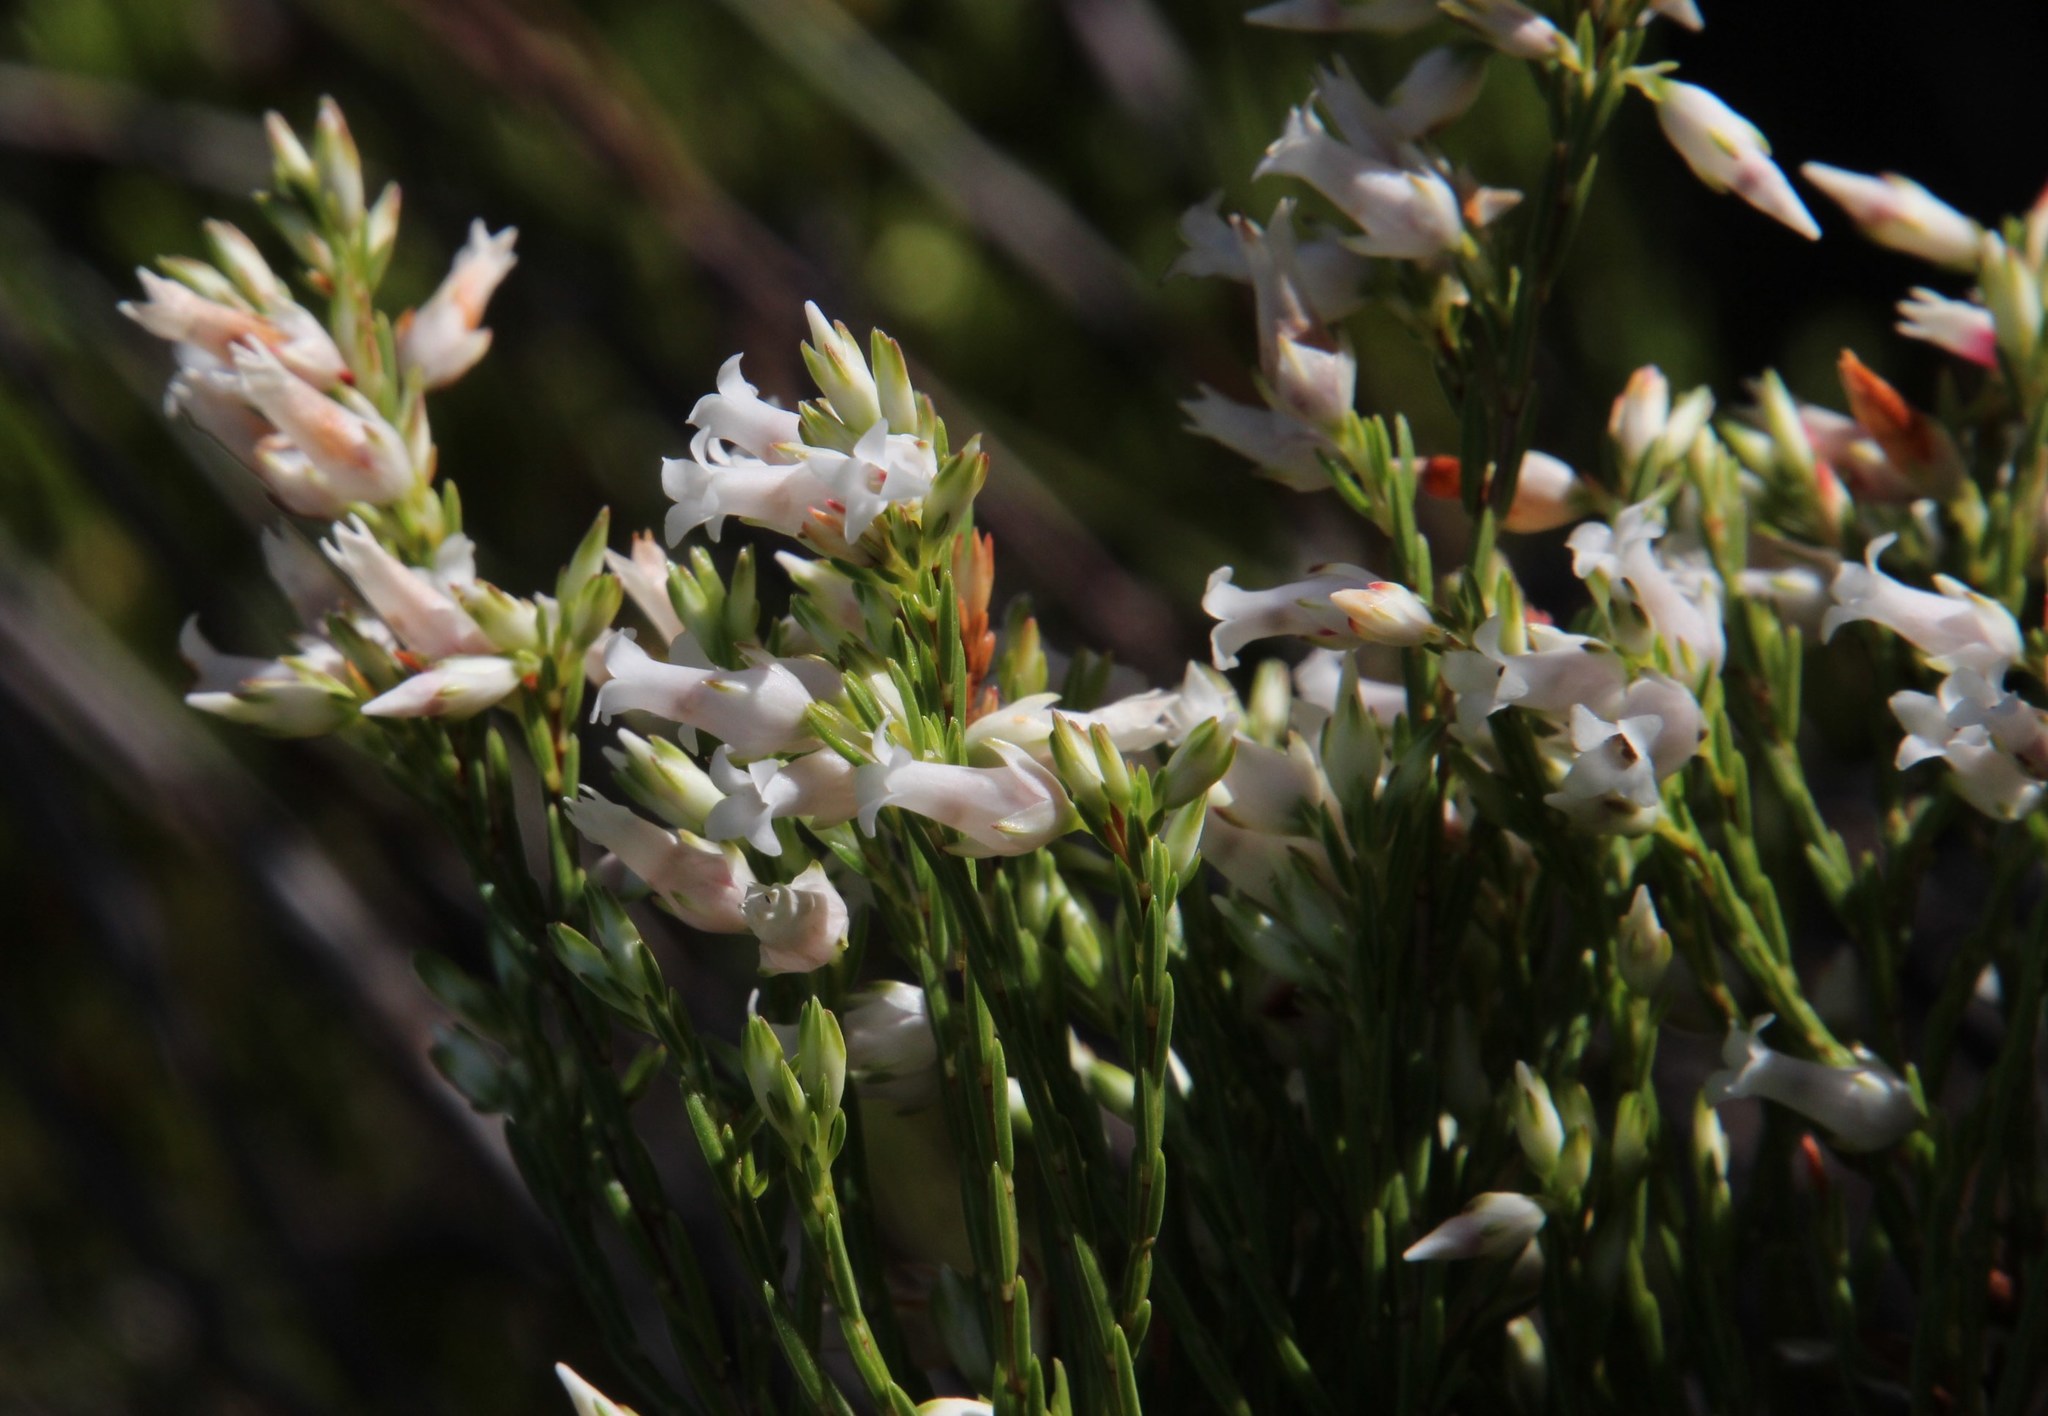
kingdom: Plantae
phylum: Tracheophyta
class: Magnoliopsida
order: Ericales
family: Ericaceae
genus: Erica
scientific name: Erica lutea
